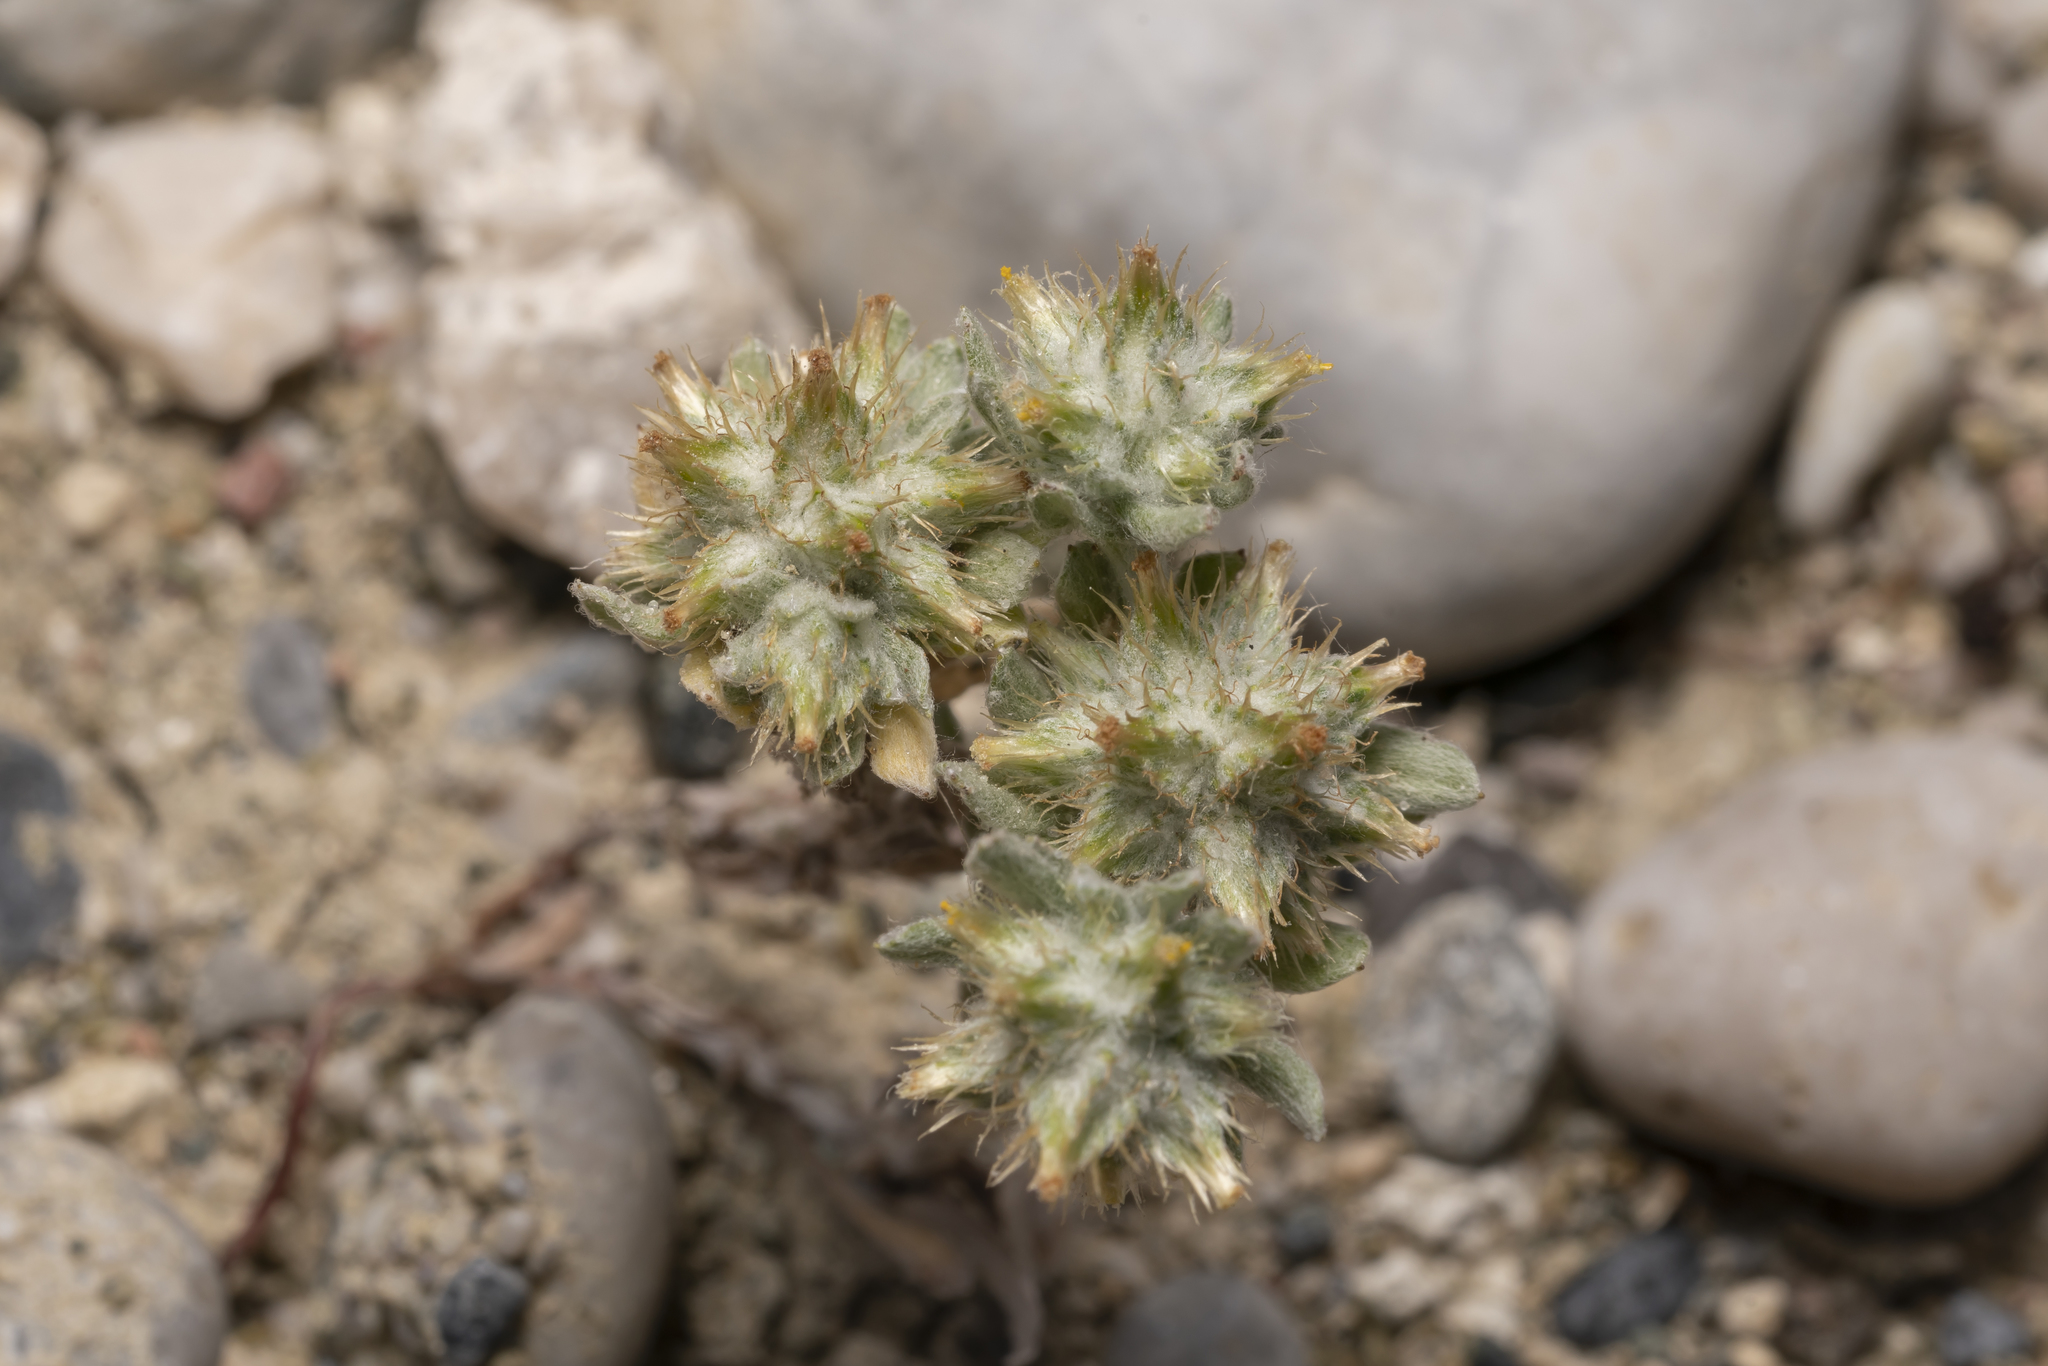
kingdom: Plantae
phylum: Tracheophyta
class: Magnoliopsida
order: Asterales
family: Asteraceae
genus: Filago
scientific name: Filago pyramidata
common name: Broad-leaved cudweed
